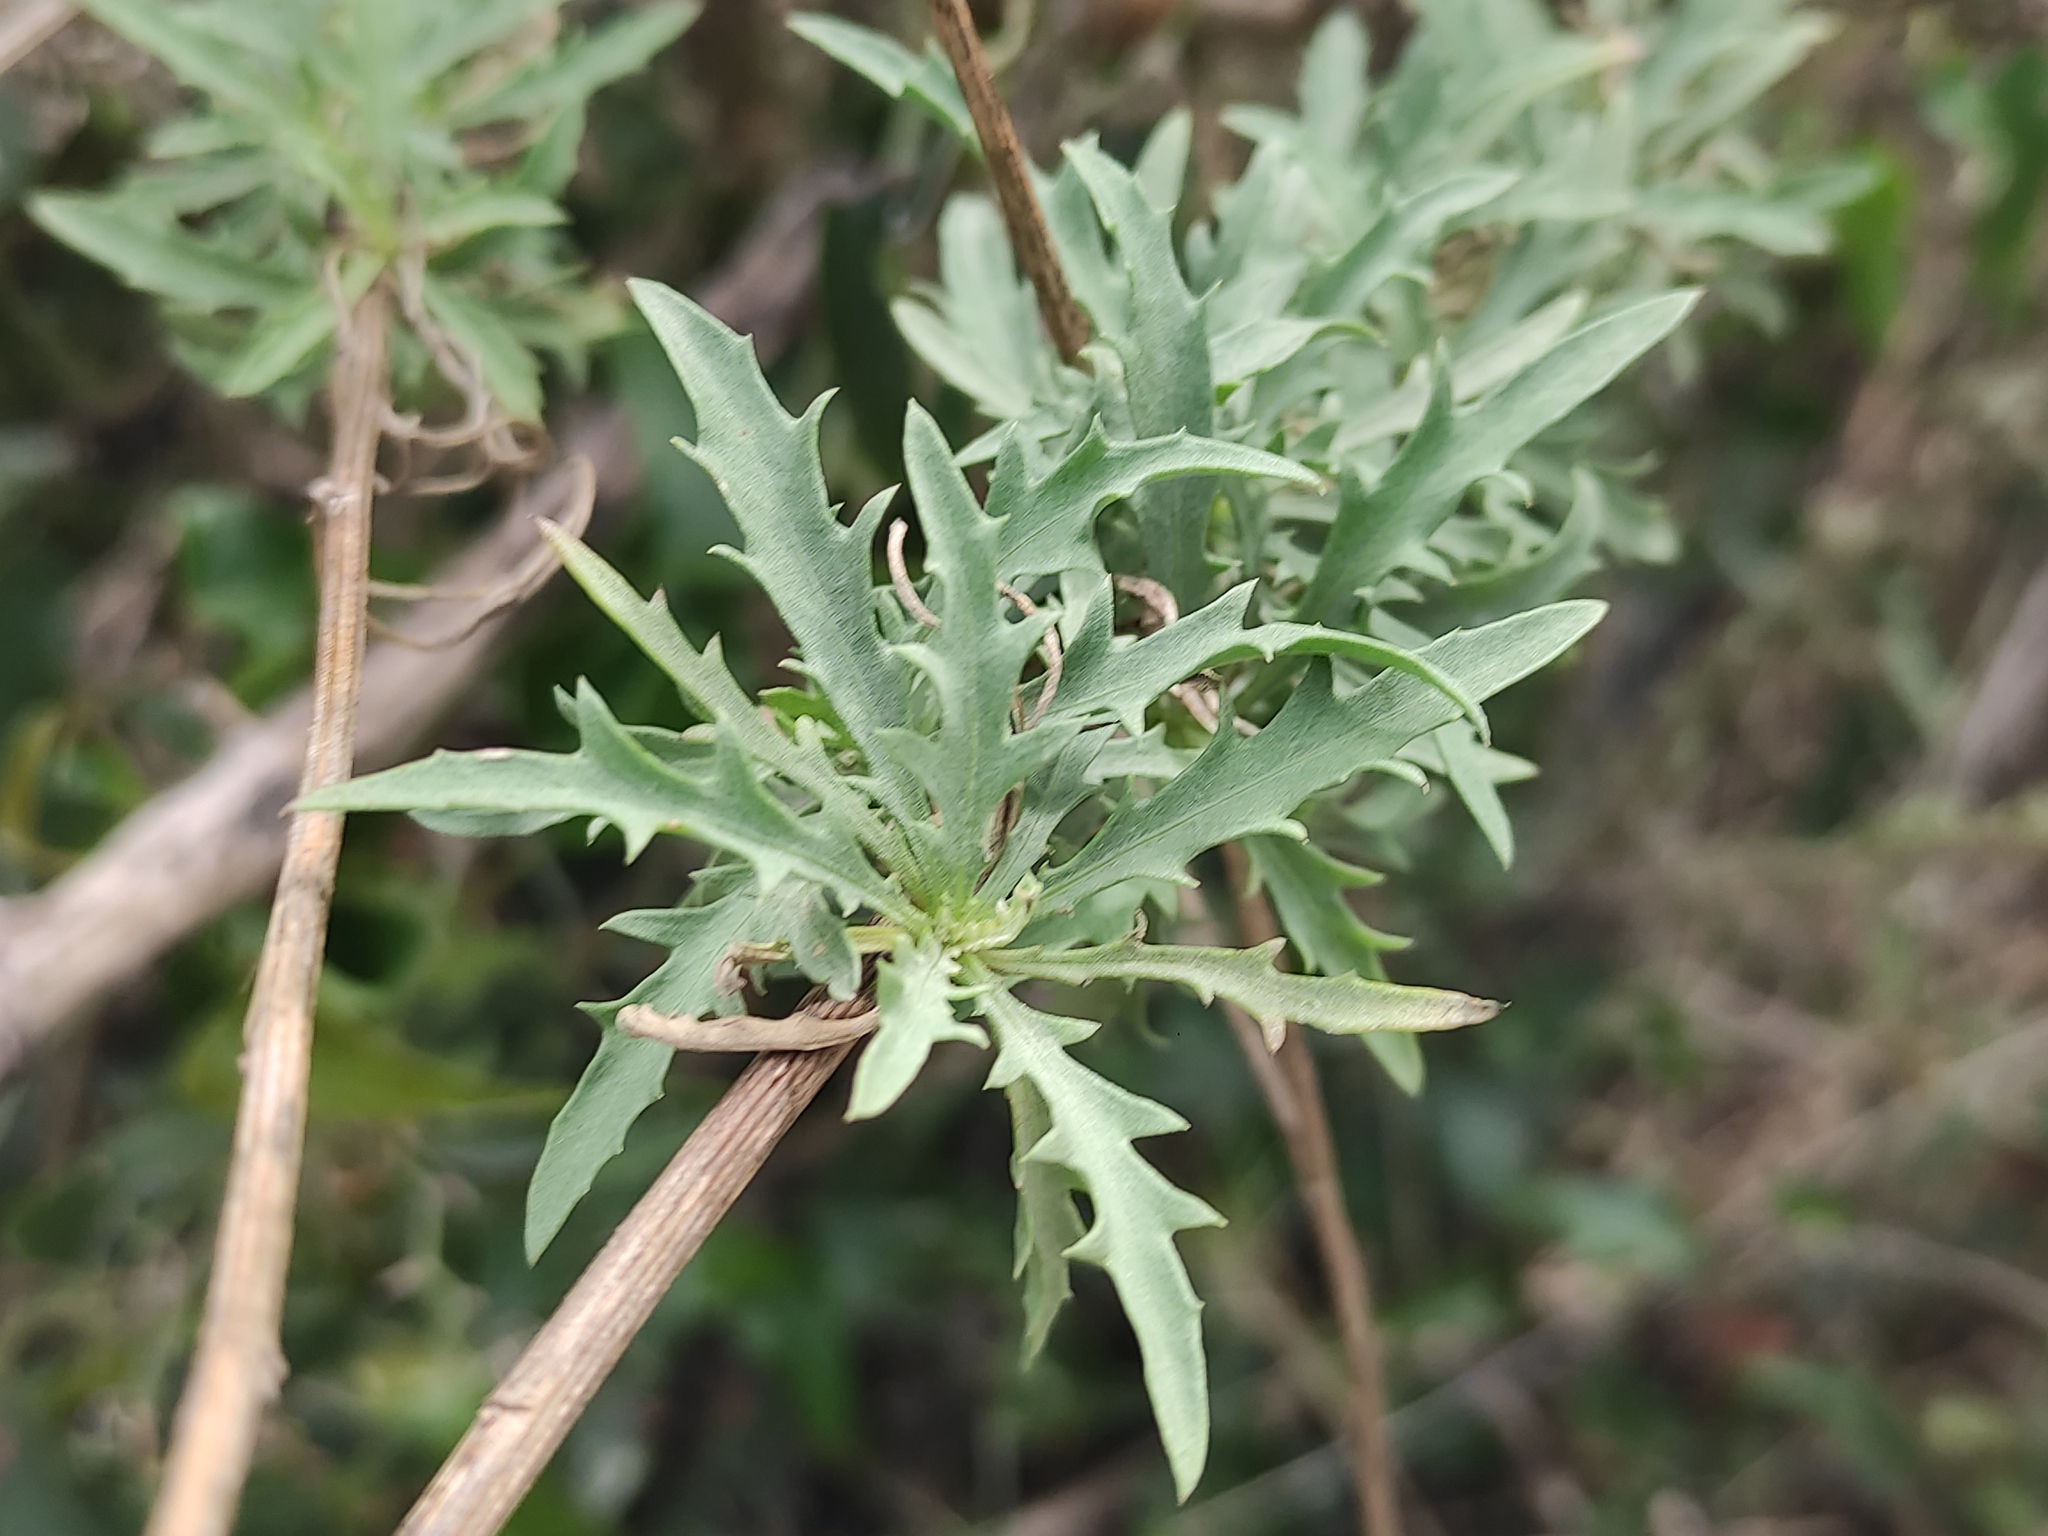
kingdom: Plantae
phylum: Tracheophyta
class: Magnoliopsida
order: Asterales
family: Asteraceae
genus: Cheirolophus
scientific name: Cheirolophus intybaceus
